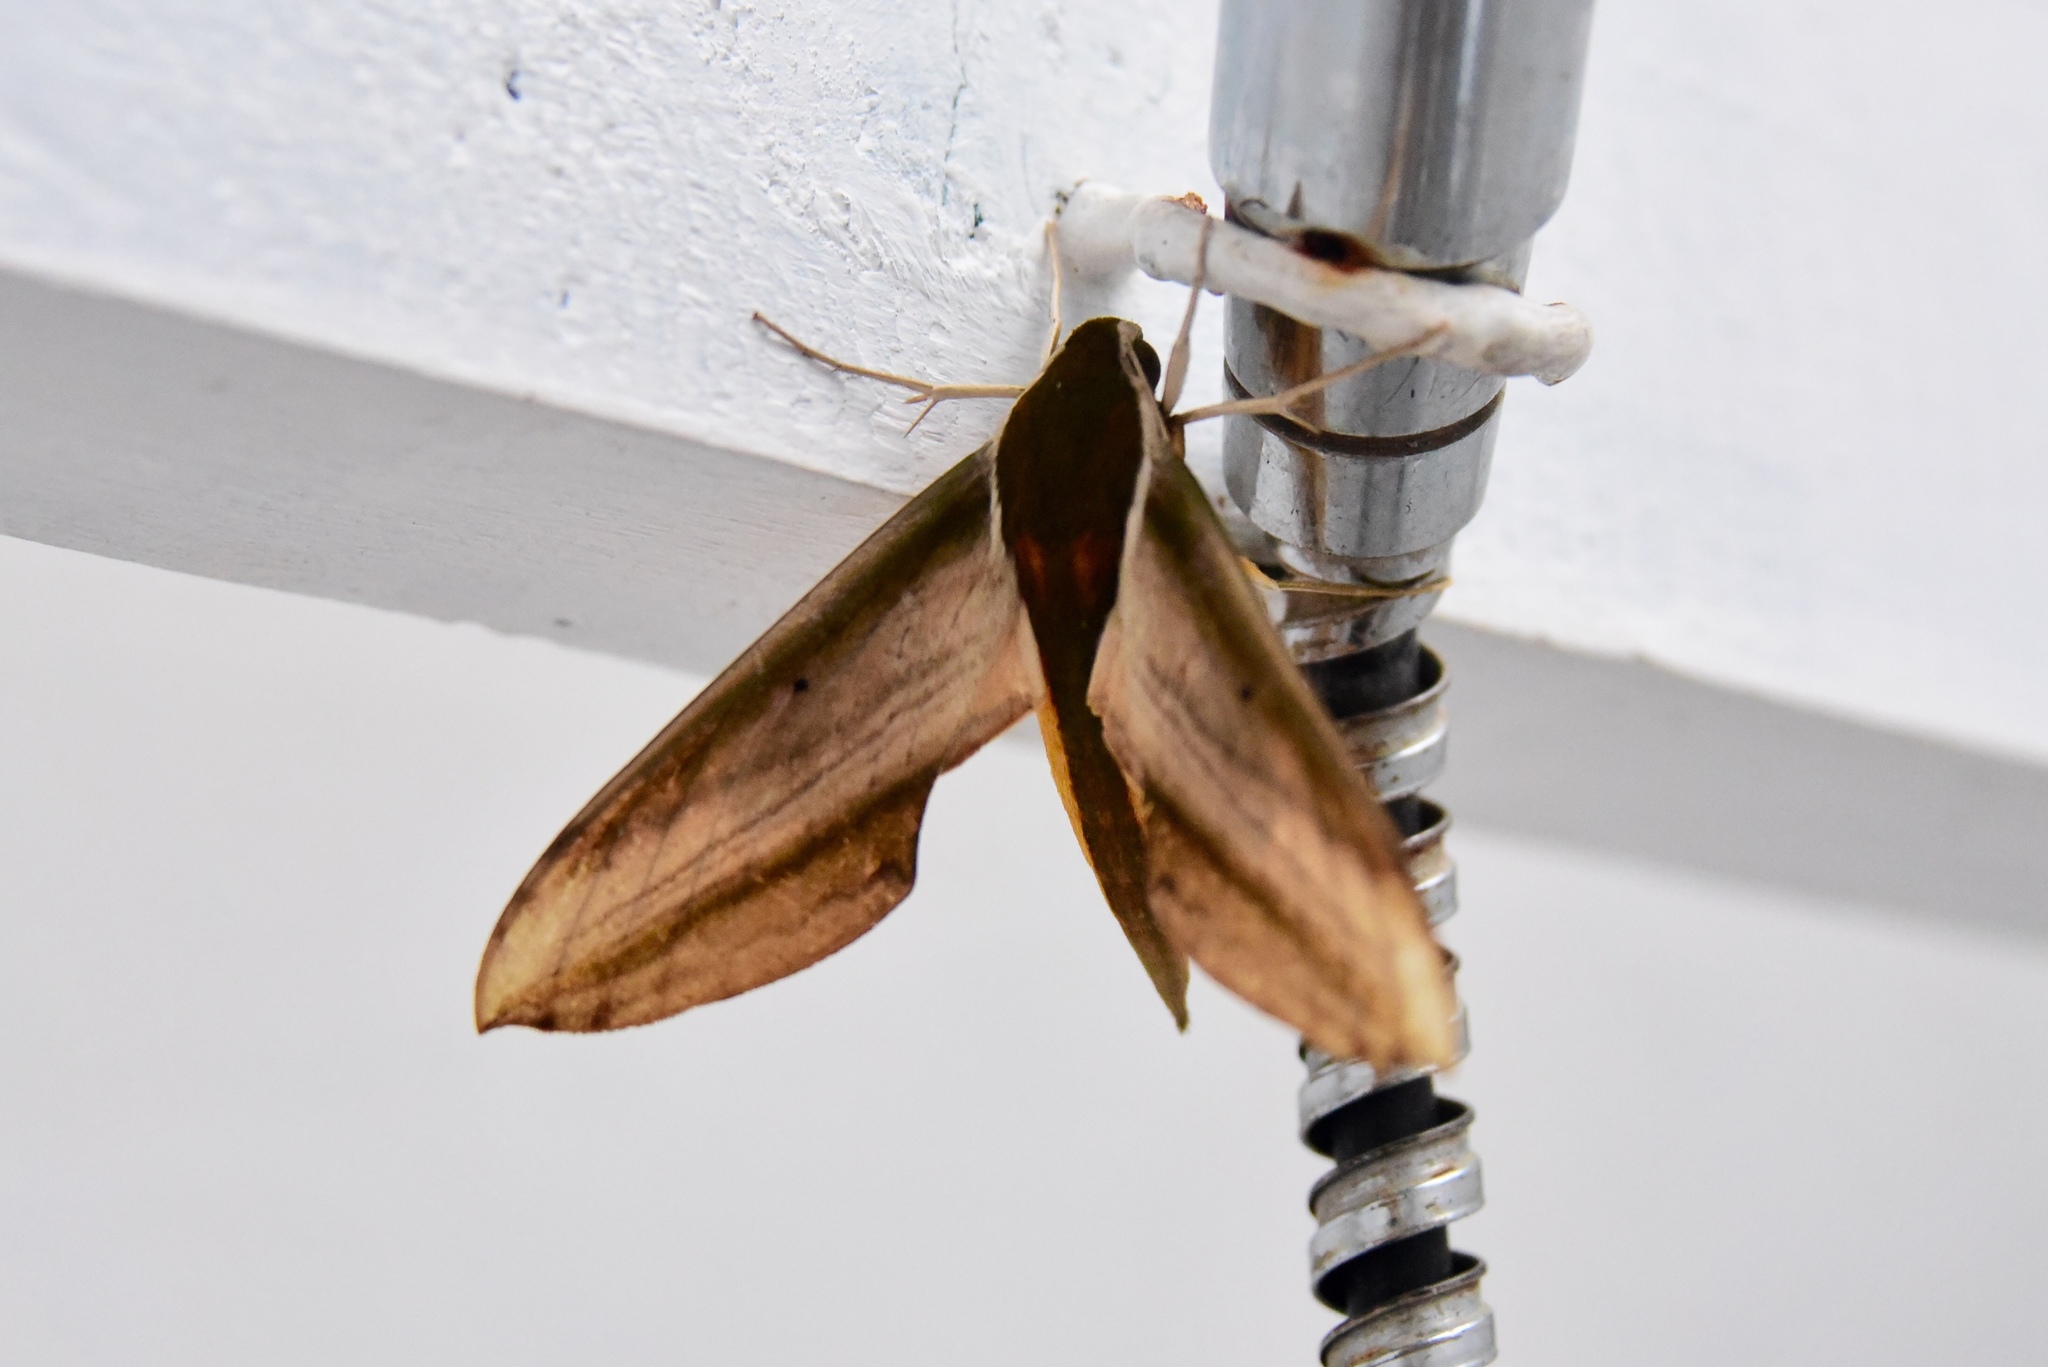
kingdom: Animalia
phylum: Arthropoda
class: Insecta
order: Lepidoptera
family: Sphingidae
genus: Theretra
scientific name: Theretra nessus
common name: Yam hawk moth
